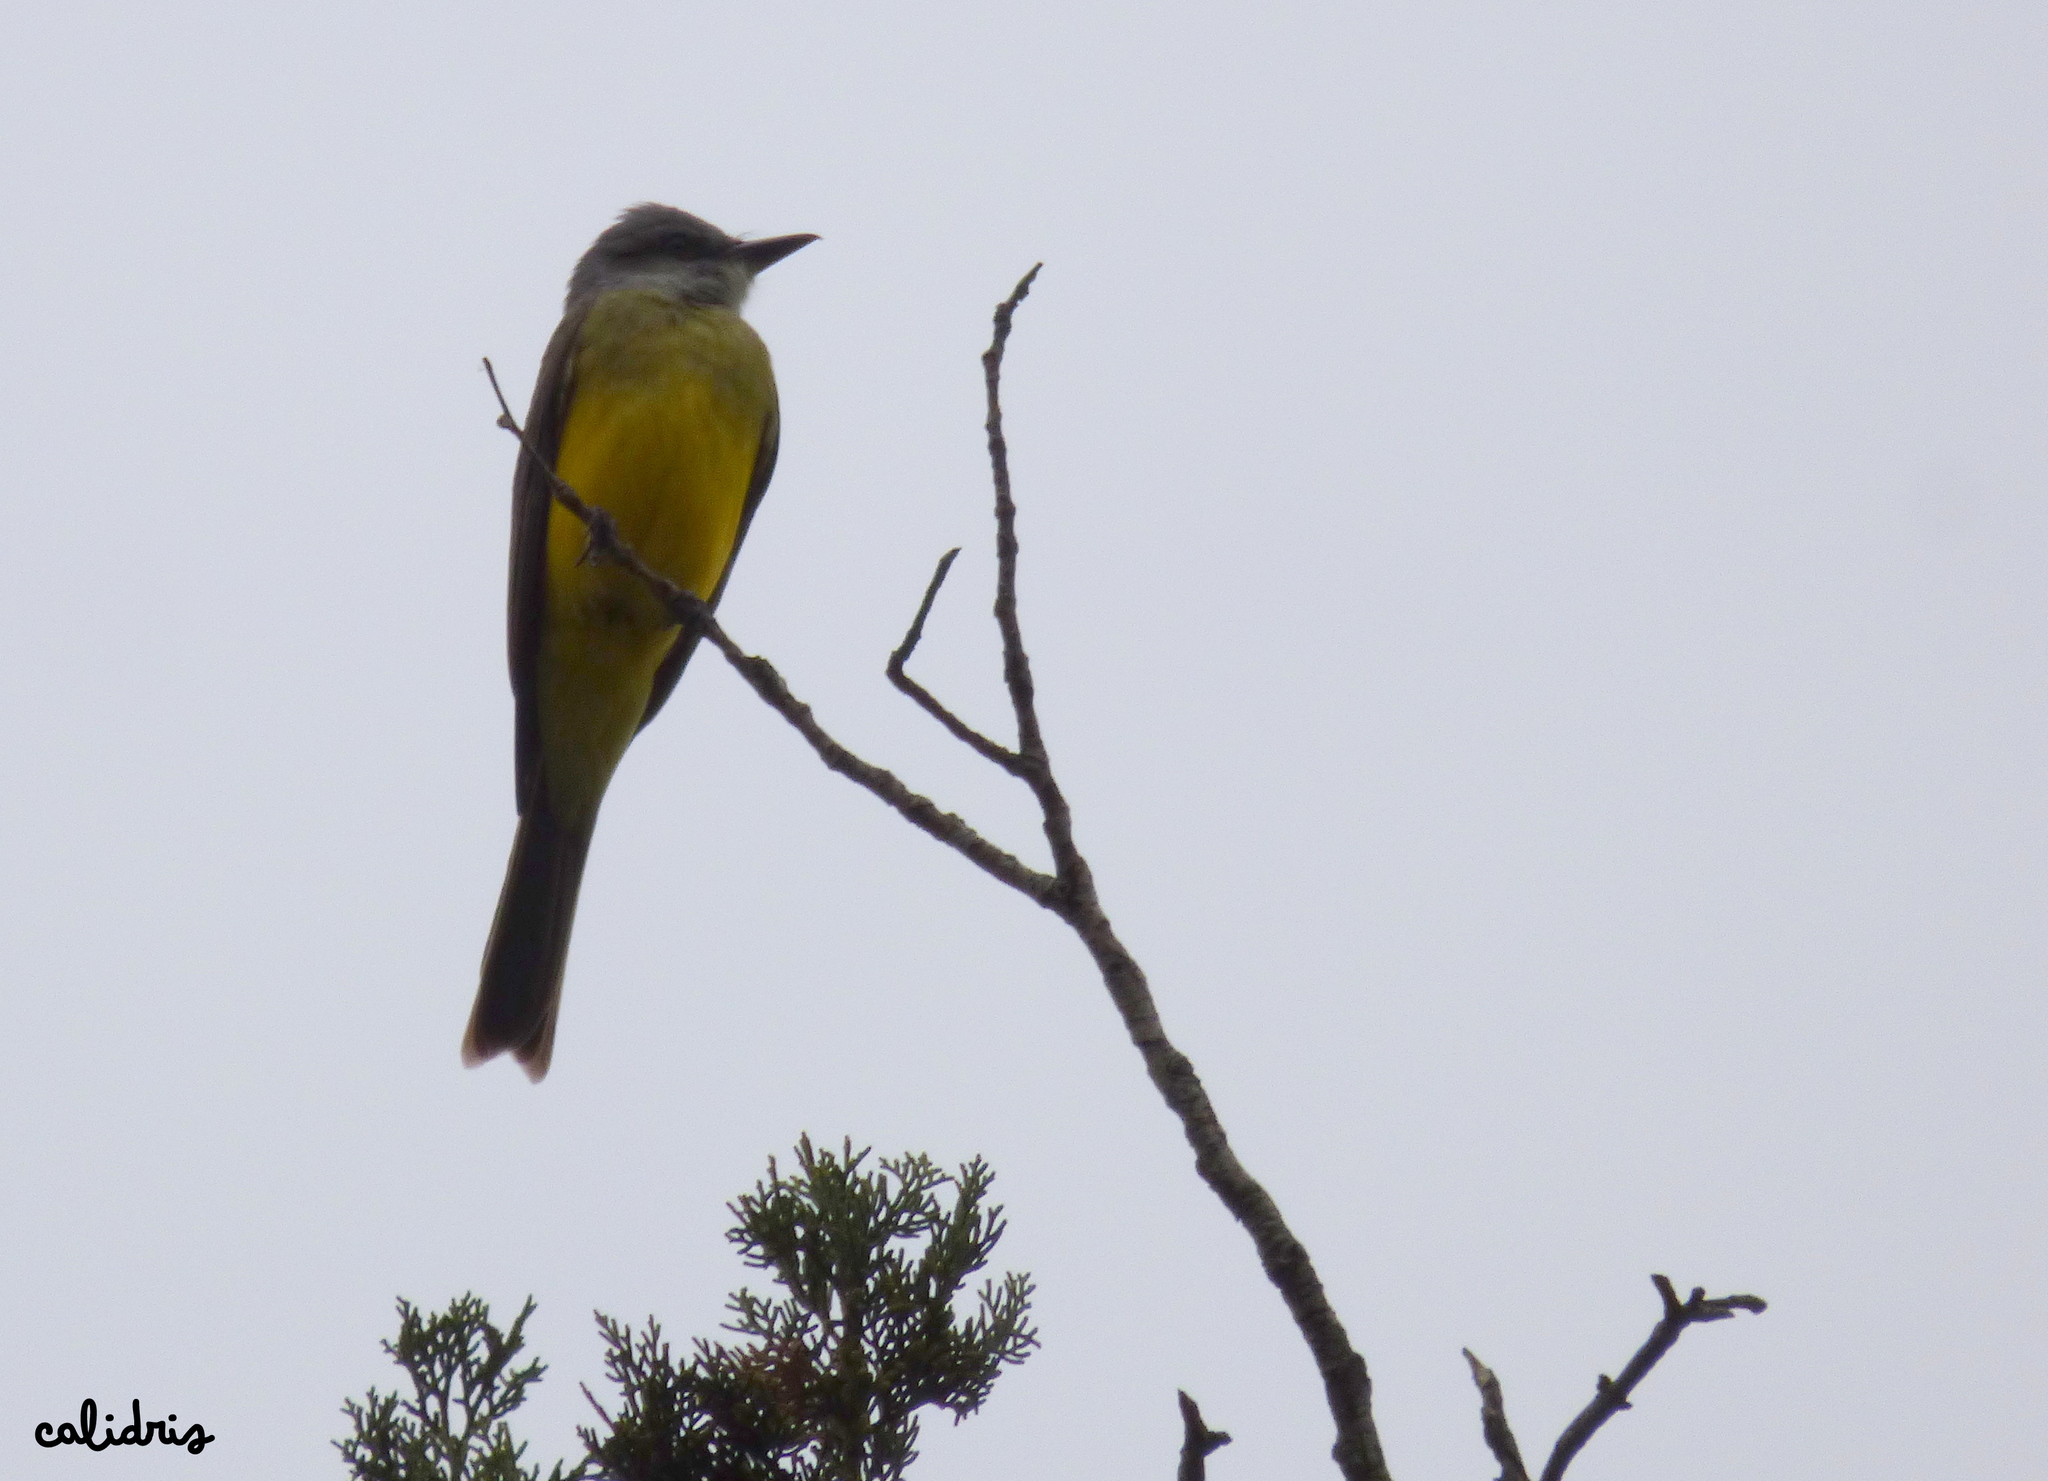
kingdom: Animalia
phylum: Chordata
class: Aves
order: Passeriformes
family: Tyrannidae
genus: Tyrannus
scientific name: Tyrannus melancholicus
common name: Tropical kingbird
